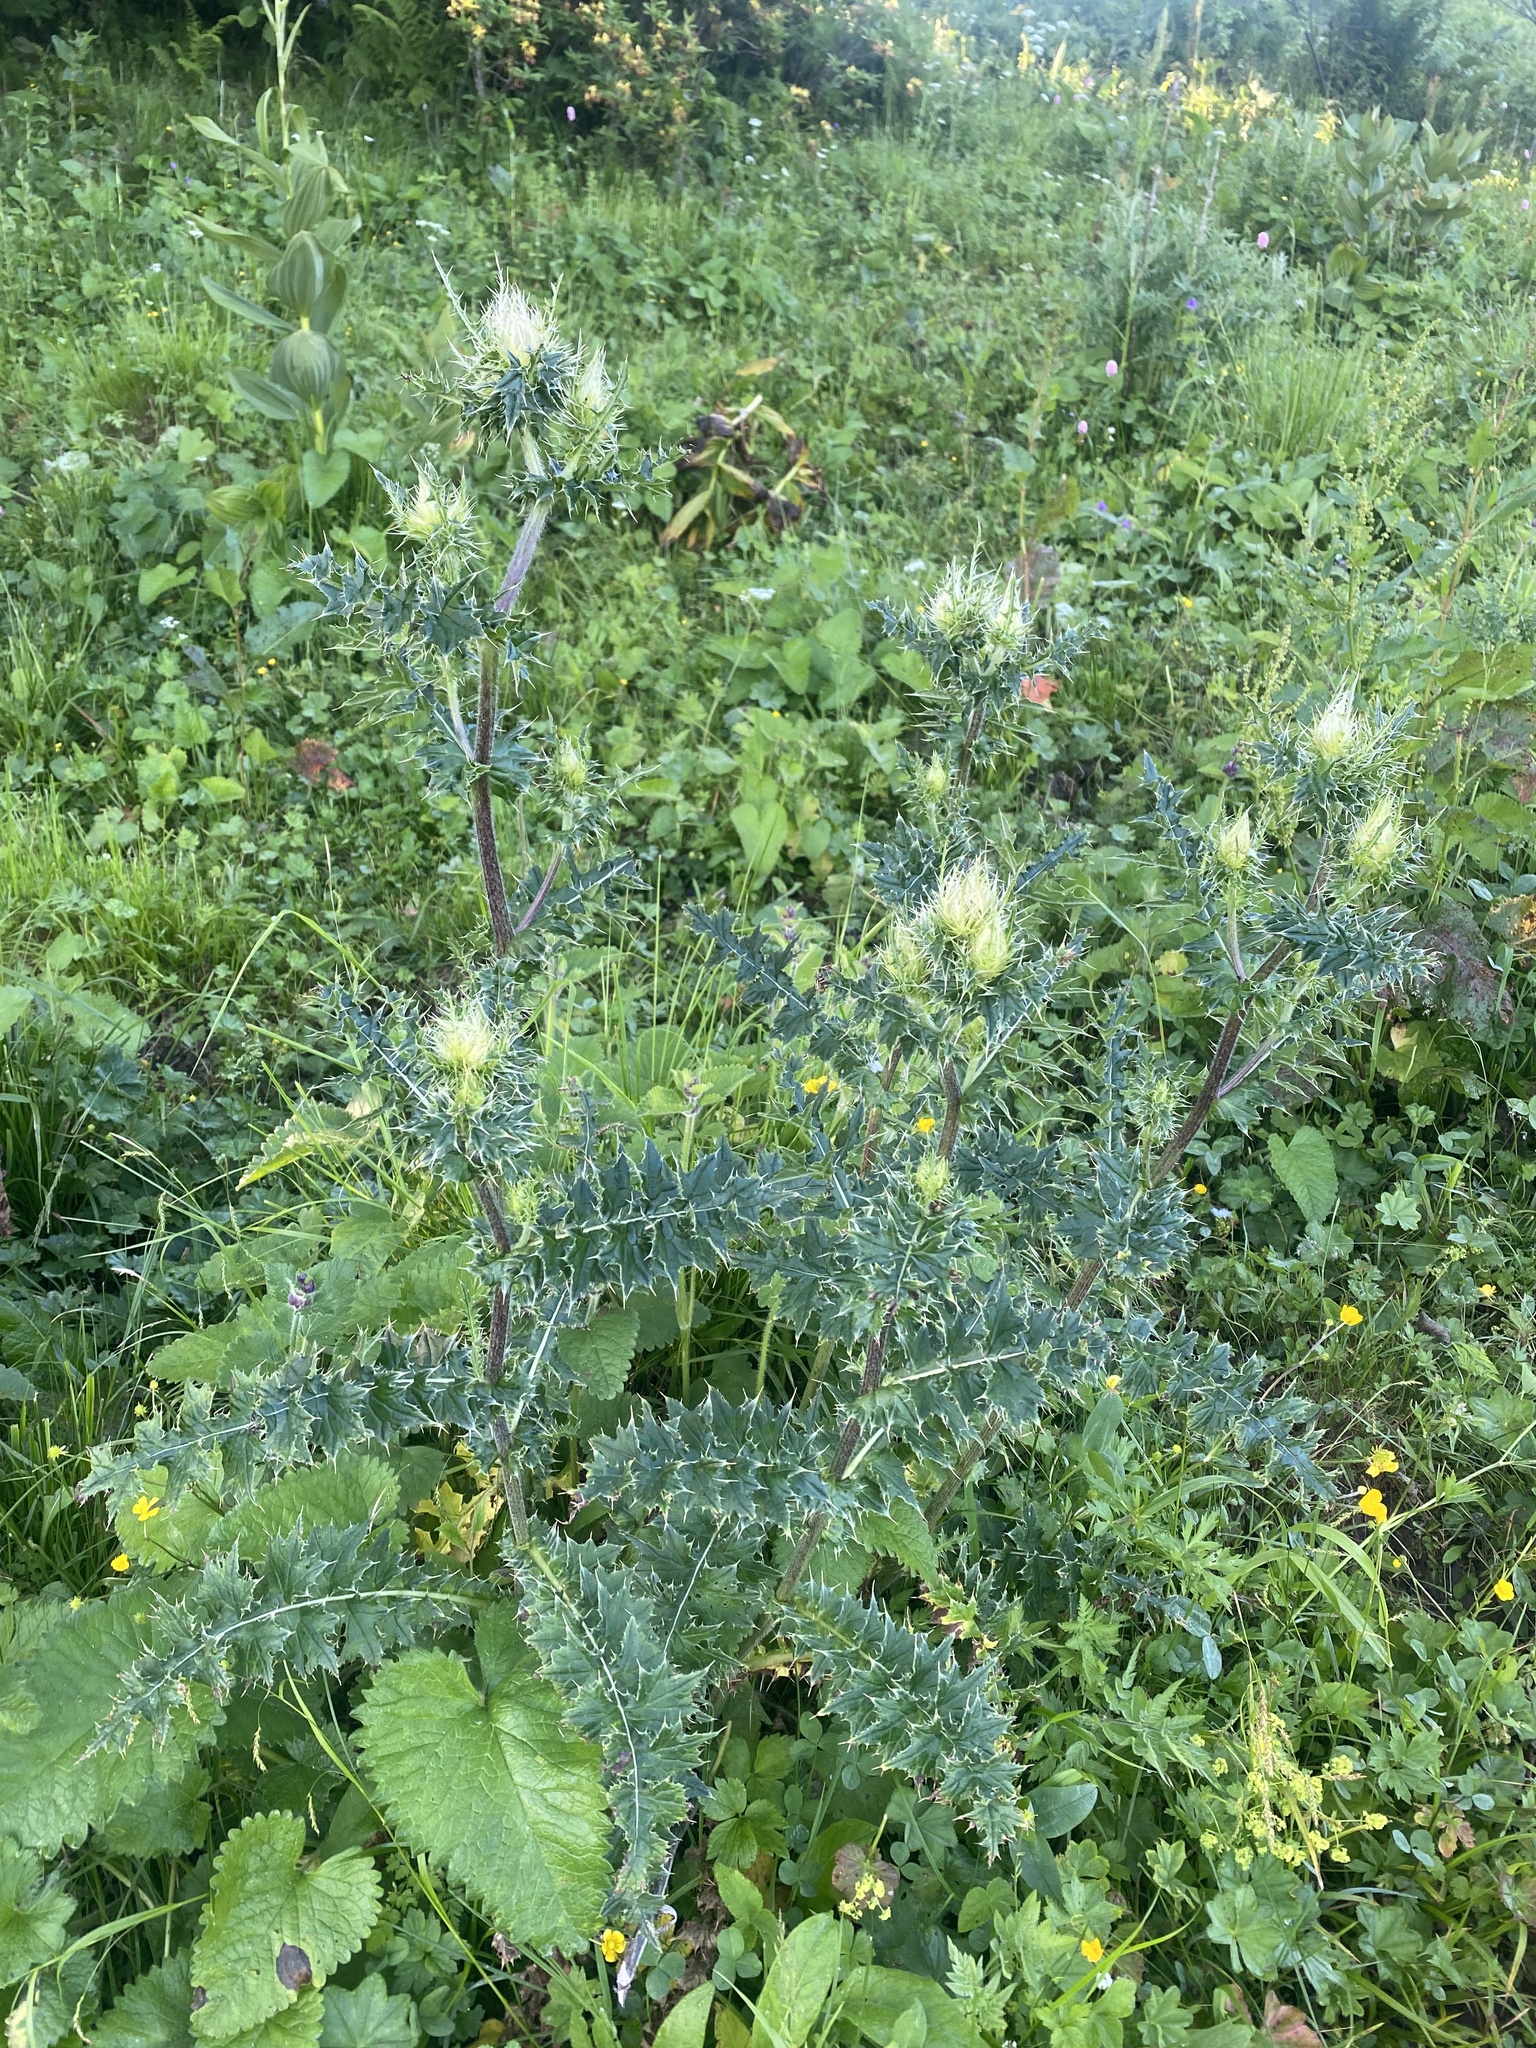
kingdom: Plantae
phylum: Tracheophyta
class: Magnoliopsida
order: Asterales
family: Asteraceae
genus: Cirsium
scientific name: Cirsium obvallatum
